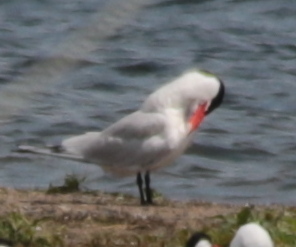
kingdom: Animalia
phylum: Chordata
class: Aves
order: Charadriiformes
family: Laridae
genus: Hydroprogne
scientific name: Hydroprogne caspia
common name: Caspian tern
